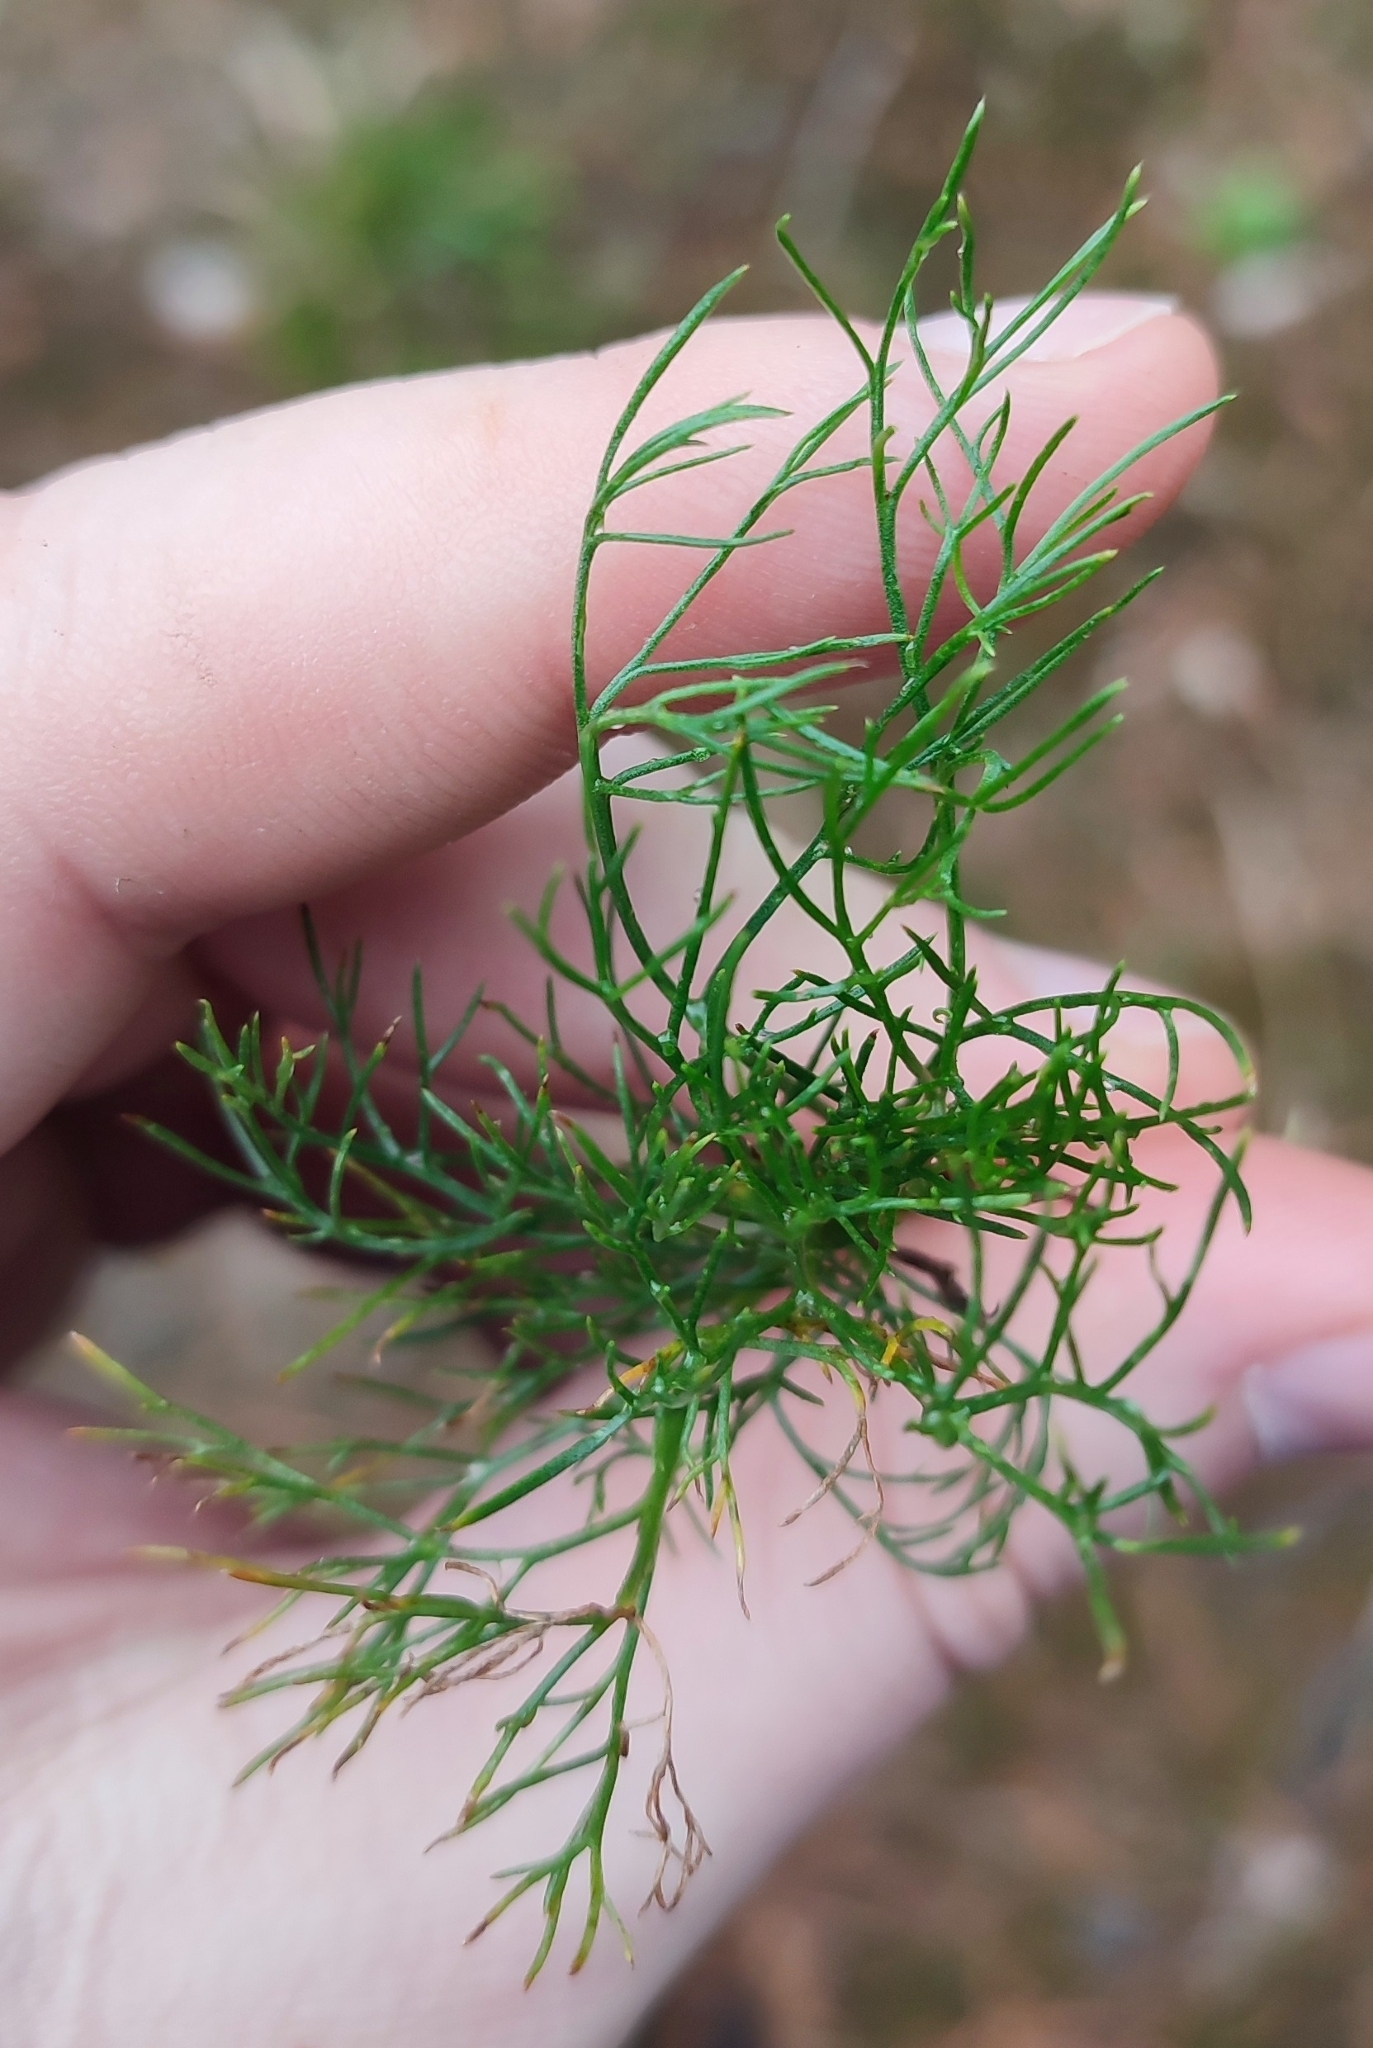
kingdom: Plantae
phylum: Tracheophyta
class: Magnoliopsida
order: Asterales
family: Asteraceae
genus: Artemisia
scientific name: Artemisia campestris
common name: Field wormwood
